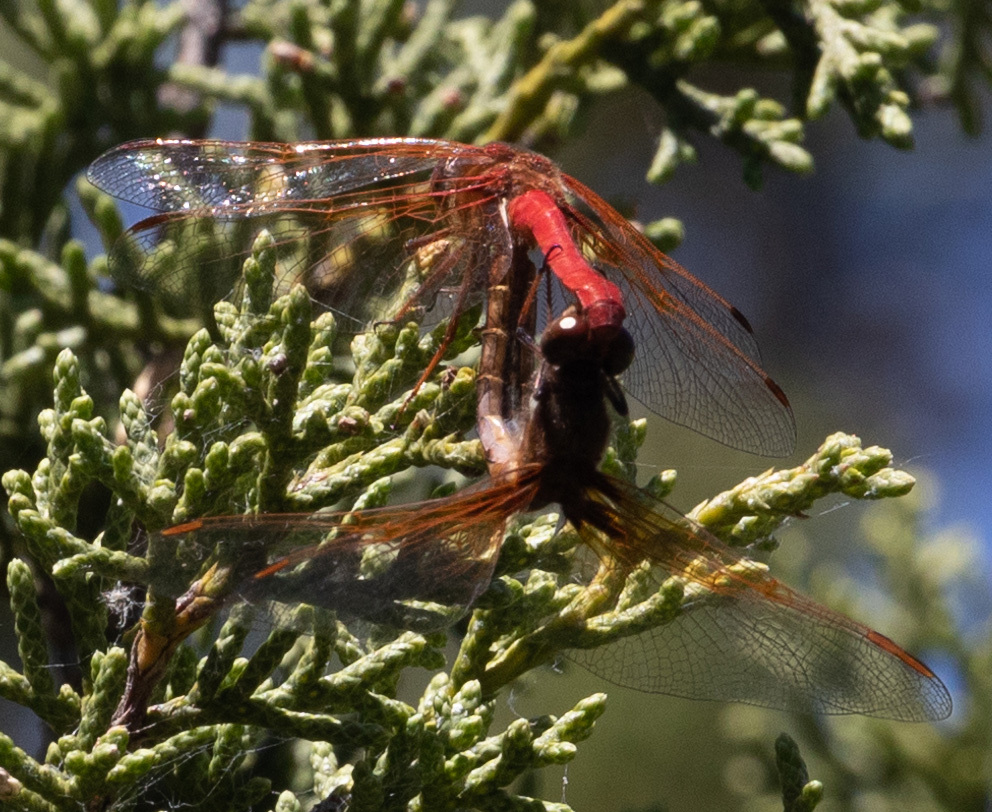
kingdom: Animalia
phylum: Arthropoda
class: Insecta
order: Odonata
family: Libellulidae
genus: Sympetrum
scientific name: Sympetrum illotum
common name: Cardinal meadowhawk
